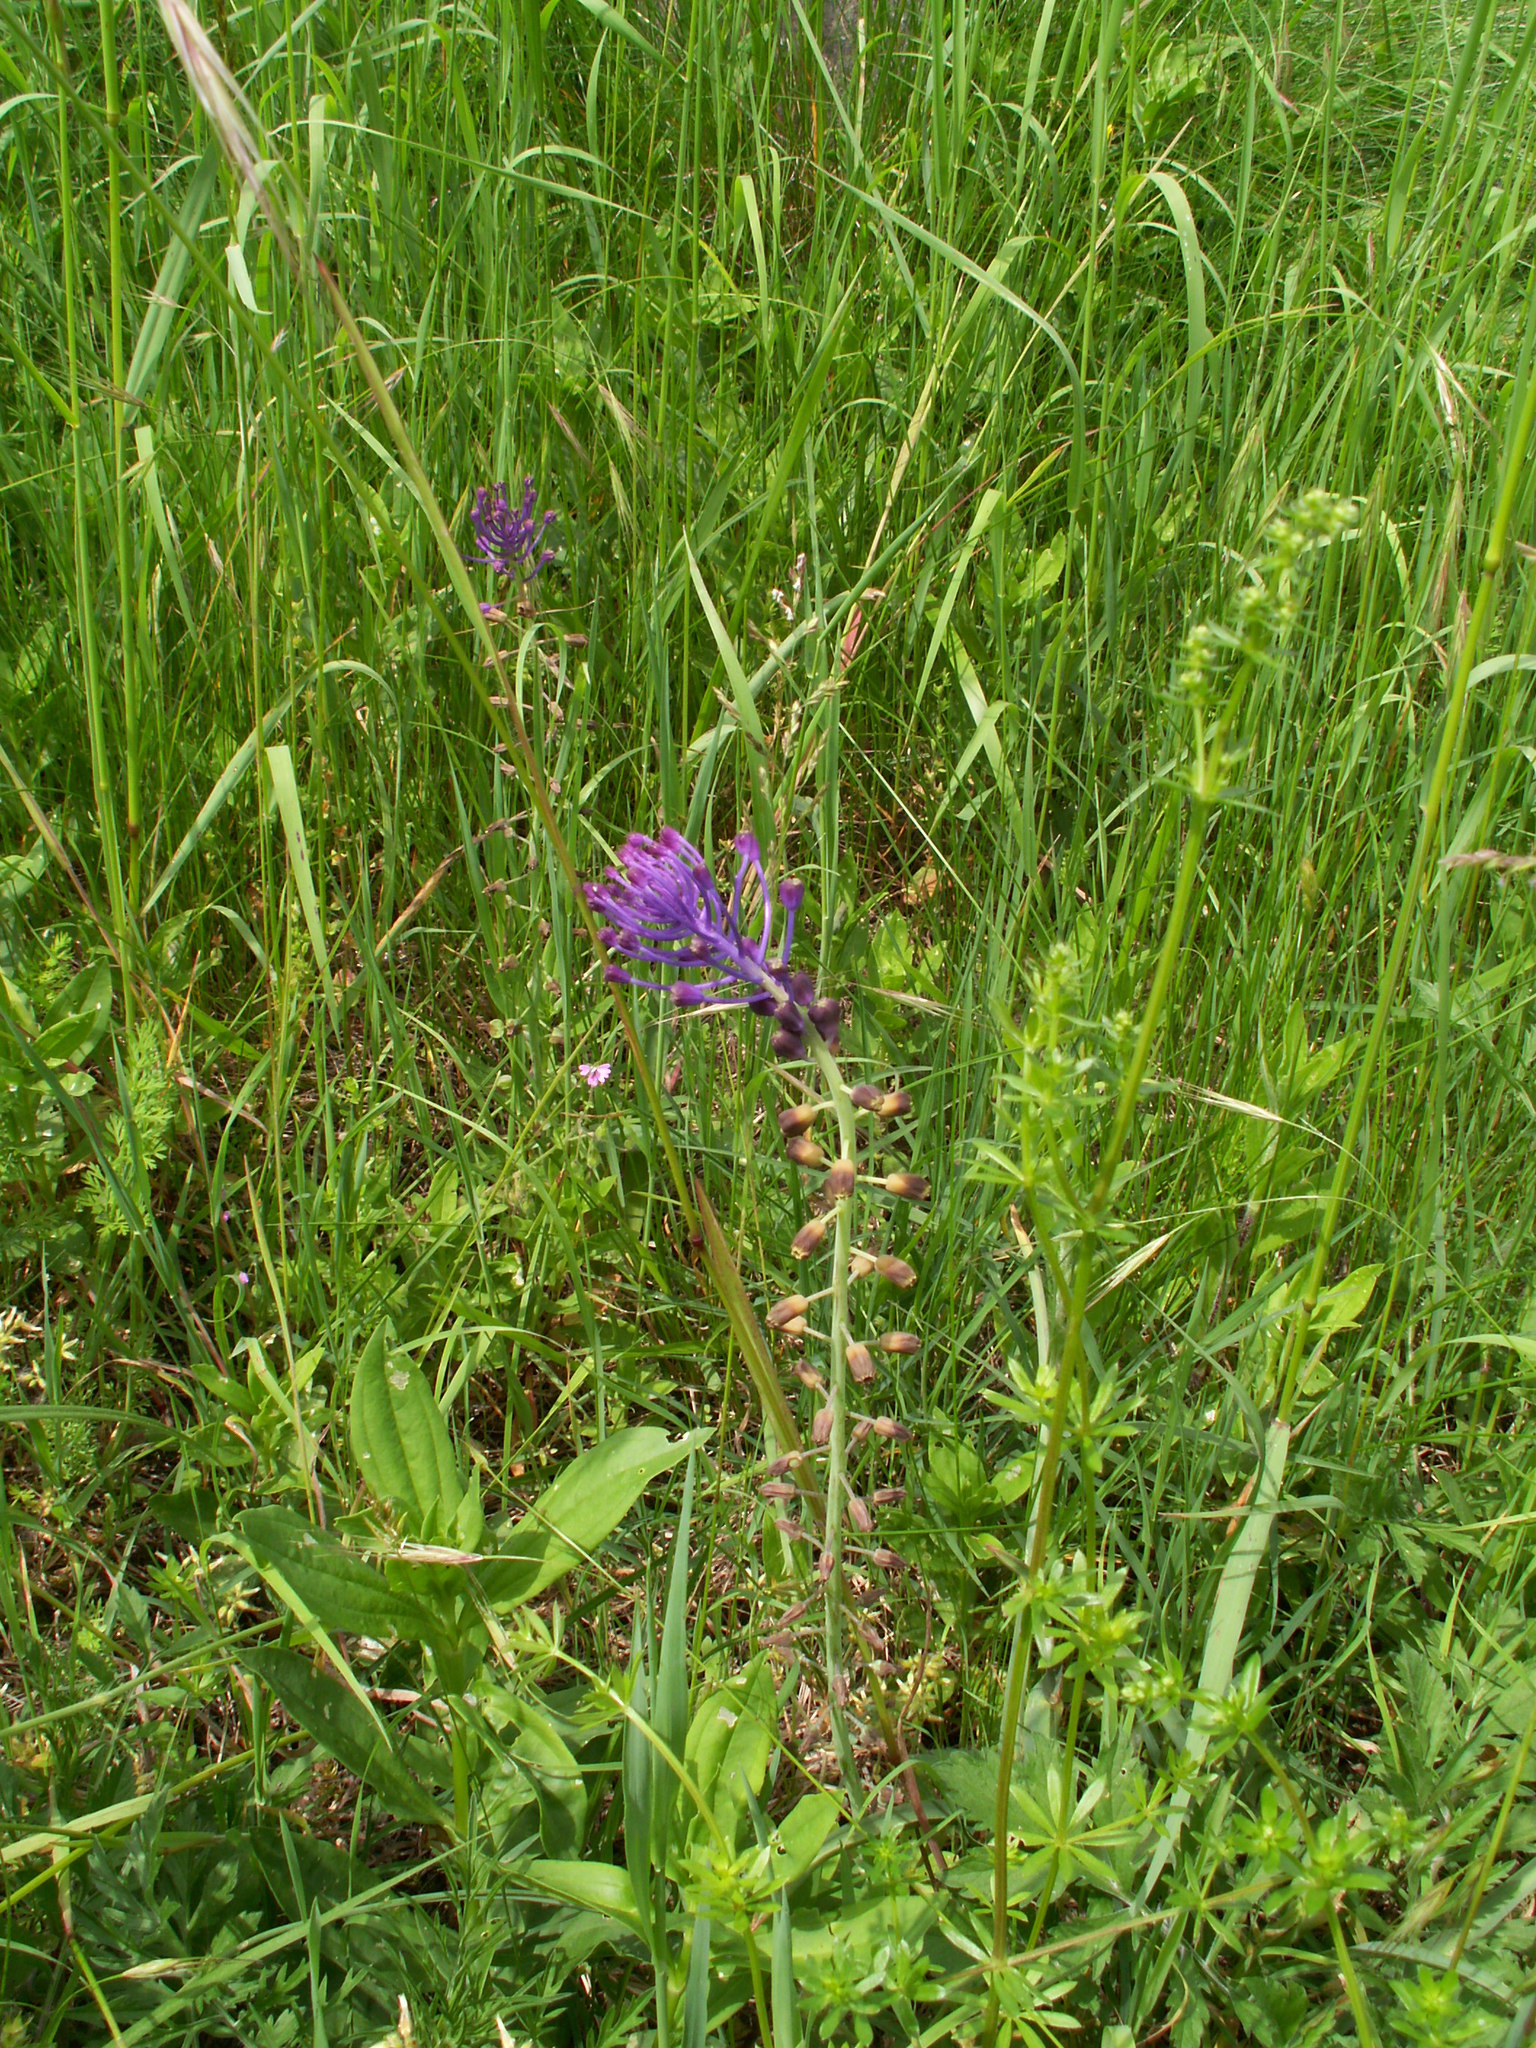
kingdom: Plantae
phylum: Tracheophyta
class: Liliopsida
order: Asparagales
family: Asparagaceae
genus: Muscari
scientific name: Muscari comosum
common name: Tassel hyacinth
